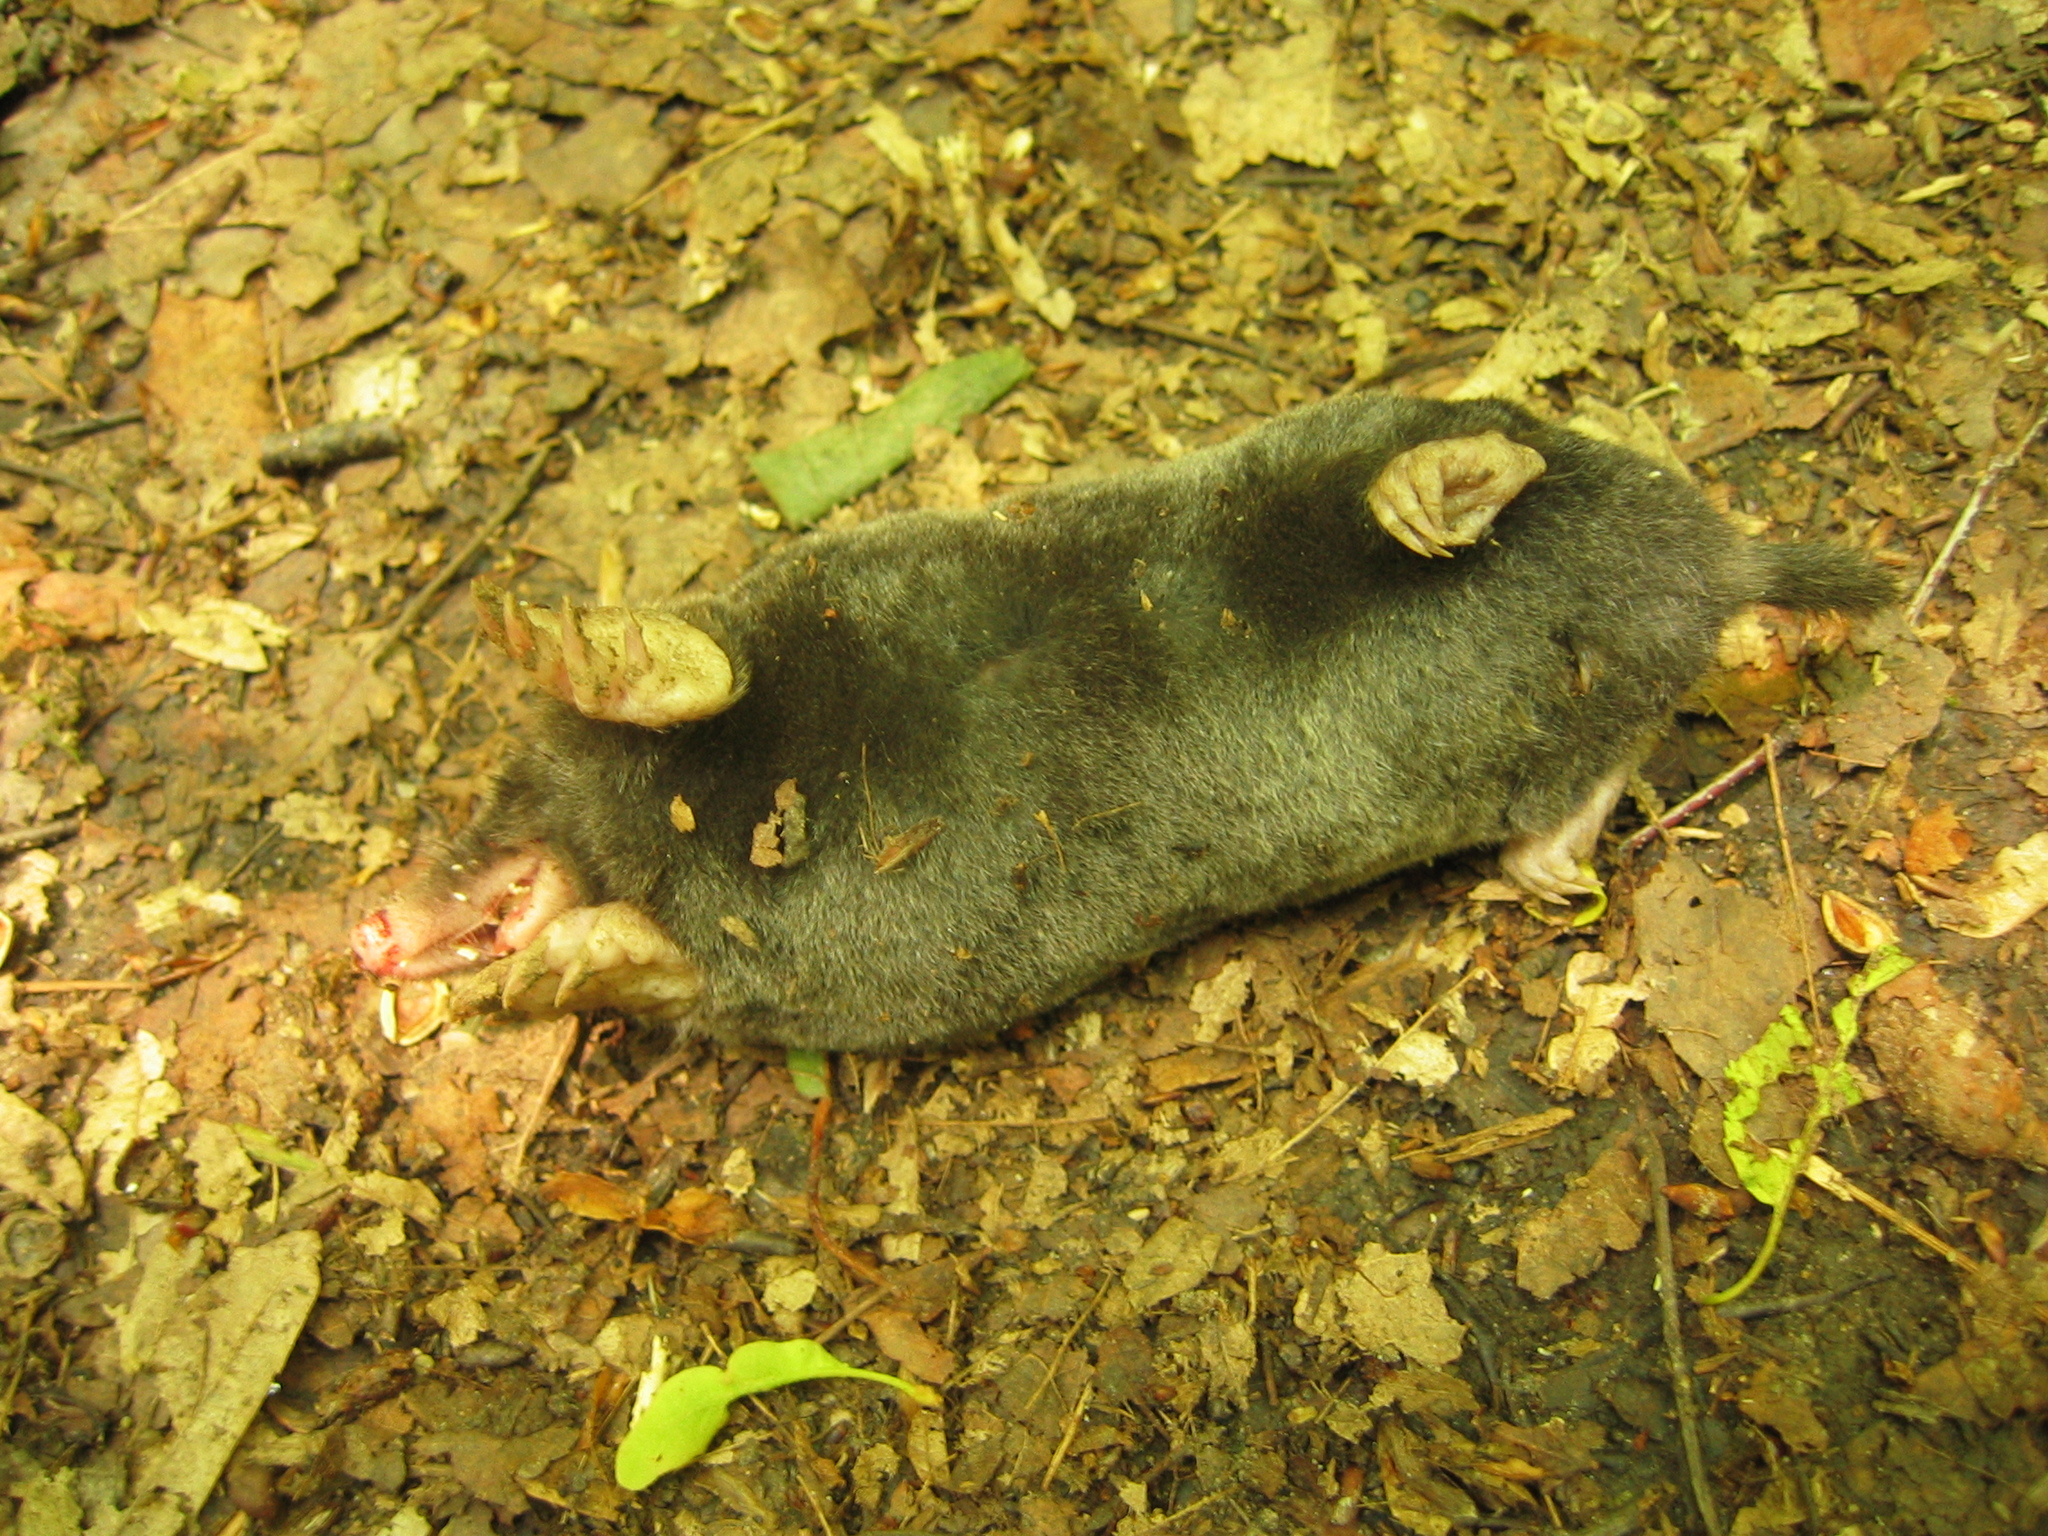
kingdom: Animalia
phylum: Chordata
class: Mammalia
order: Soricomorpha
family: Talpidae
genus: Talpa
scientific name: Talpa europaea
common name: European mole
